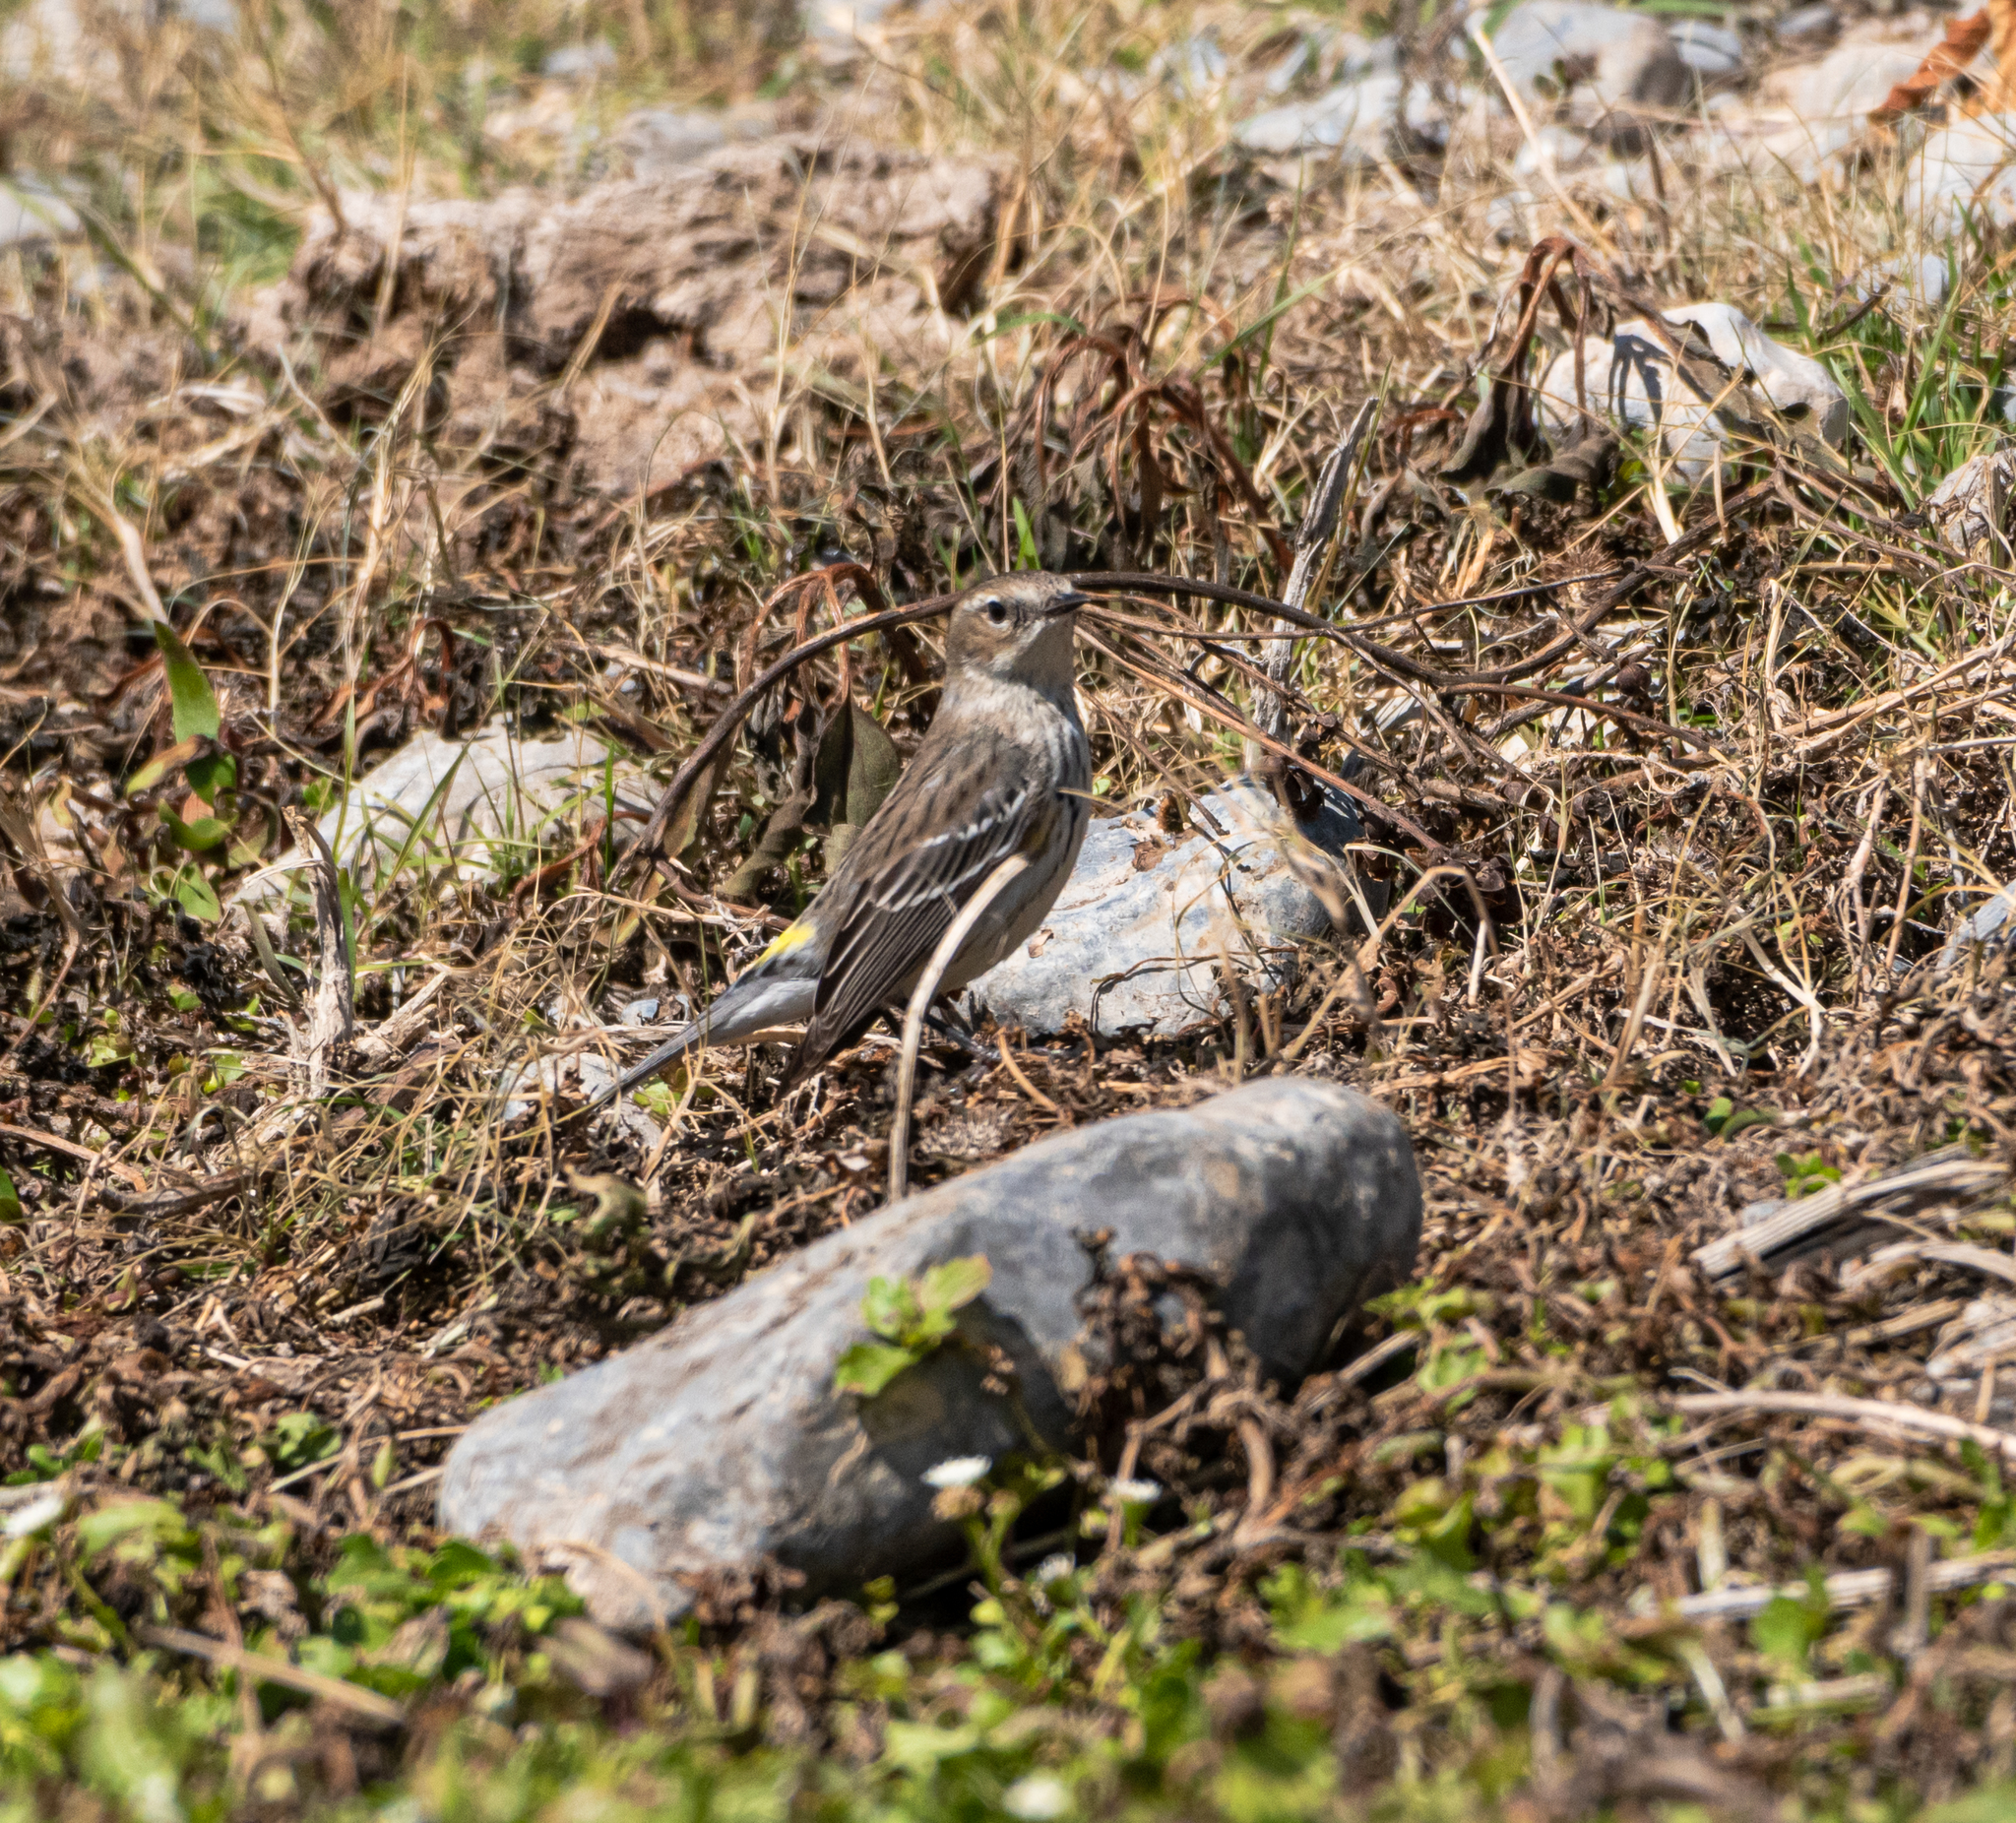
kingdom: Animalia
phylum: Chordata
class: Aves
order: Passeriformes
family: Parulidae
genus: Setophaga
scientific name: Setophaga coronata
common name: Myrtle warbler
